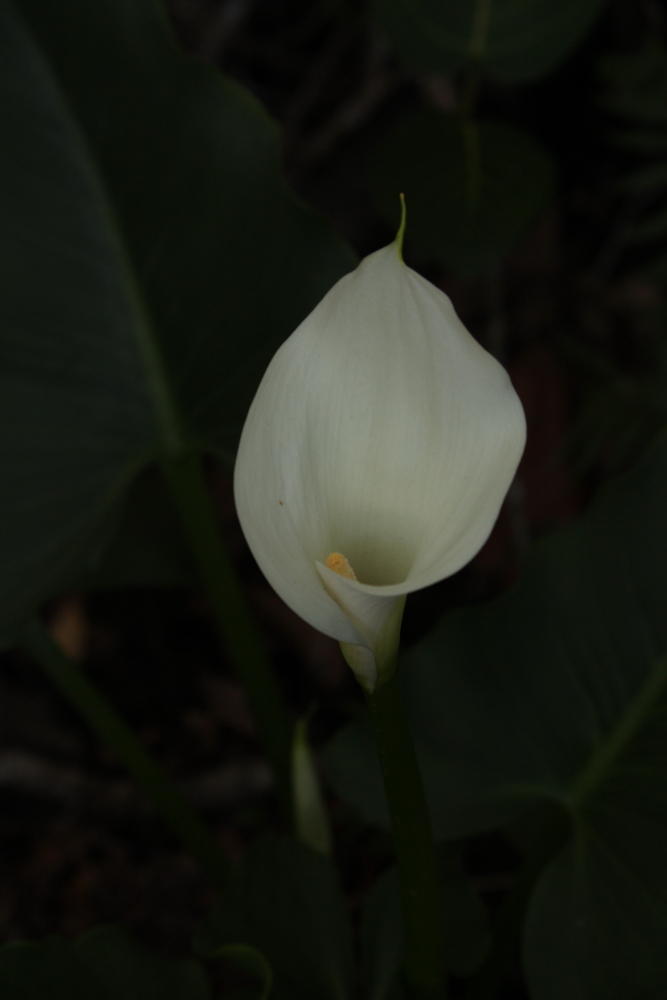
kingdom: Plantae
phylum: Tracheophyta
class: Liliopsida
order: Alismatales
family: Araceae
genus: Zantedeschia
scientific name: Zantedeschia aethiopica
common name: Altar-lily
